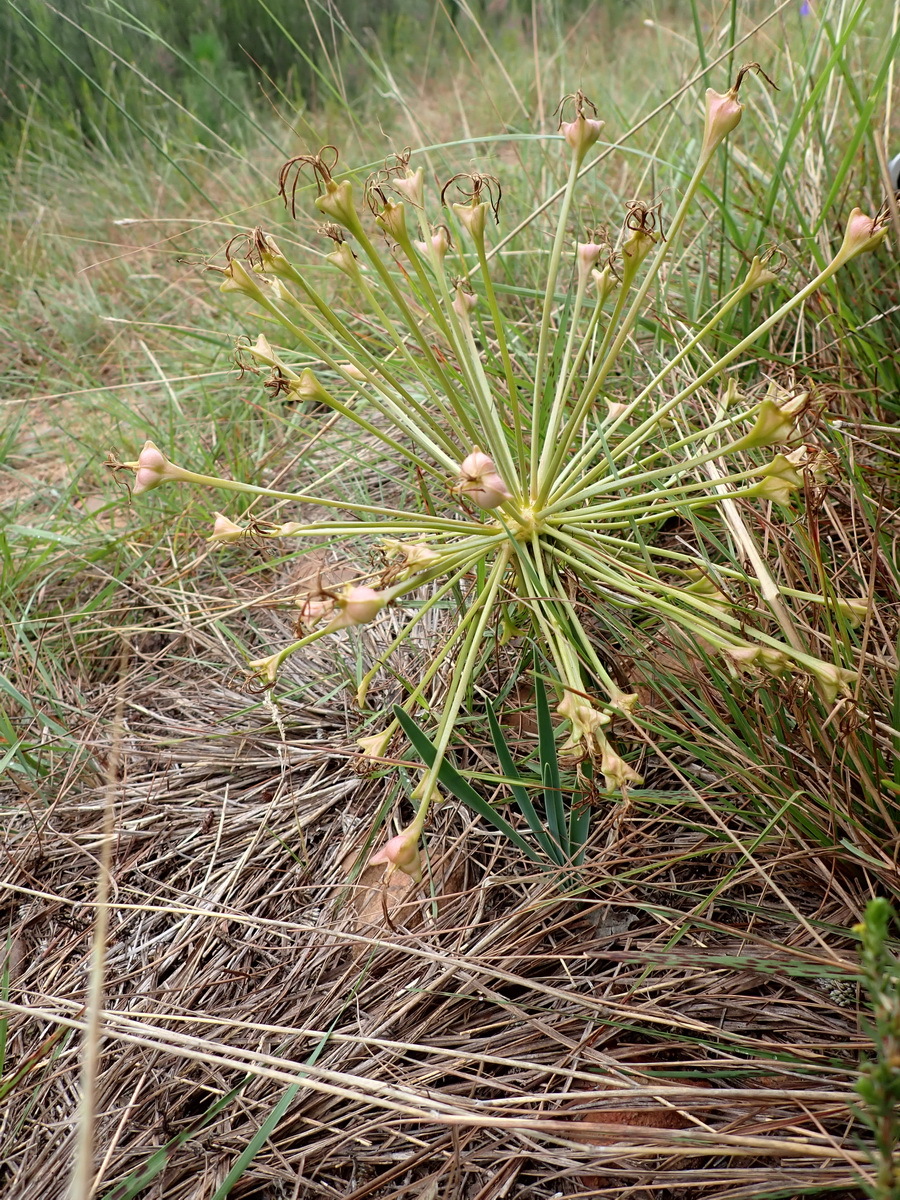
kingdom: Plantae
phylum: Tracheophyta
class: Liliopsida
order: Asparagales
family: Amaryllidaceae
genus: Boophone
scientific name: Boophone disticha
